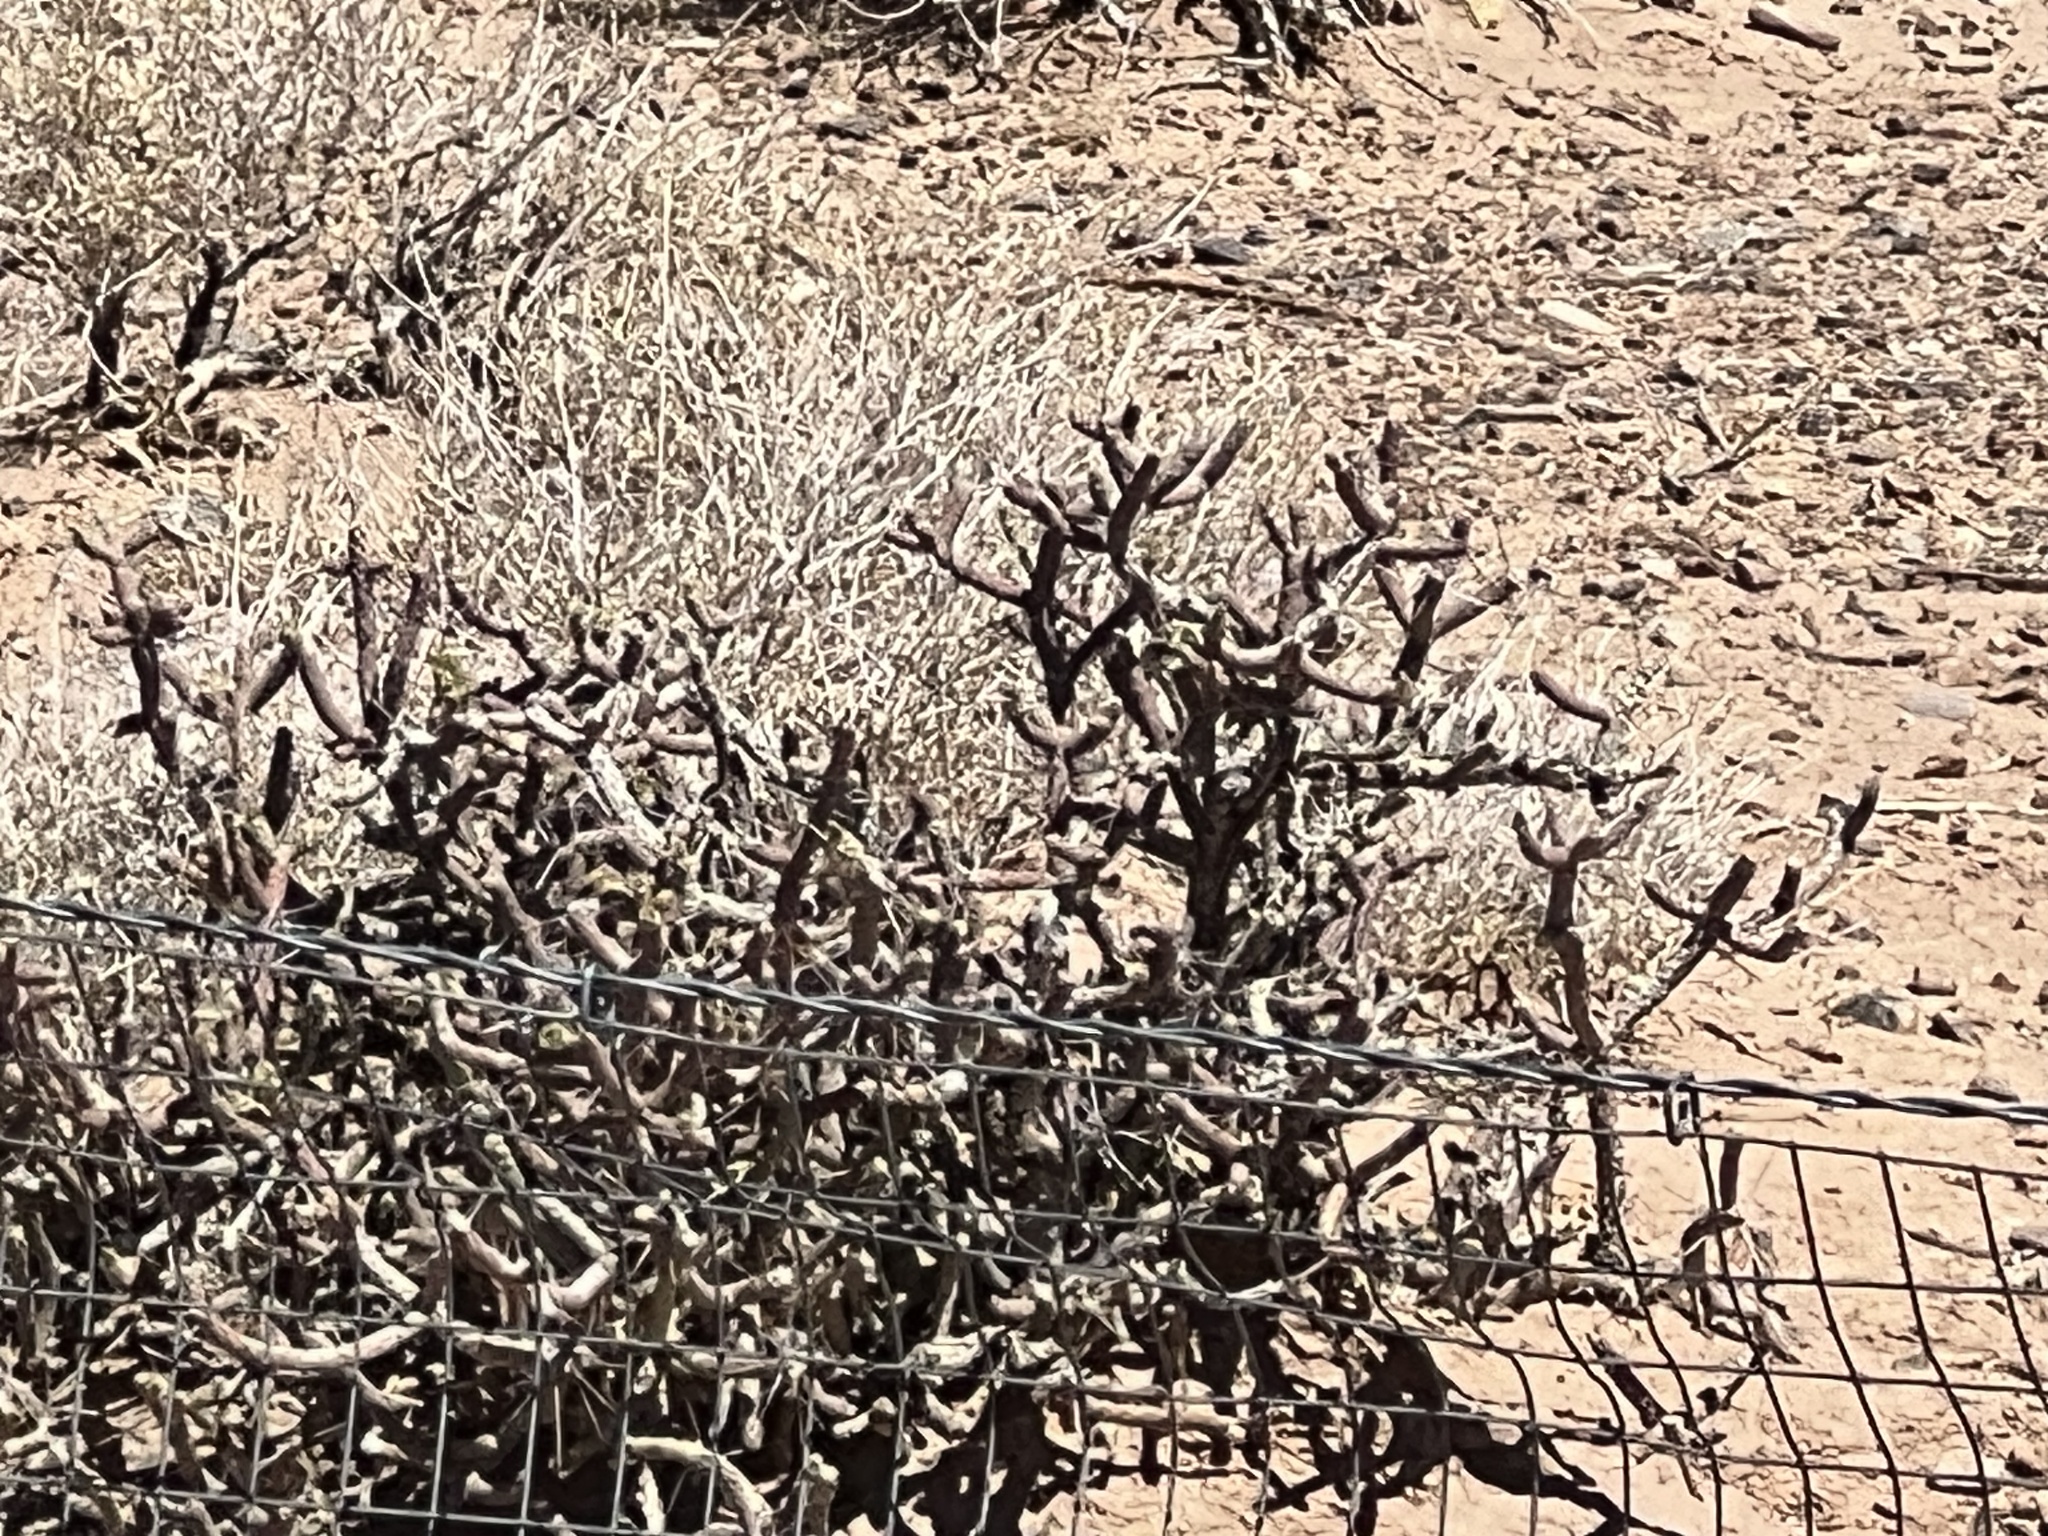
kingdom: Plantae
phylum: Tracheophyta
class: Magnoliopsida
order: Caryophyllales
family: Cactaceae
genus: Cylindropuntia
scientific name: Cylindropuntia ramosissima
